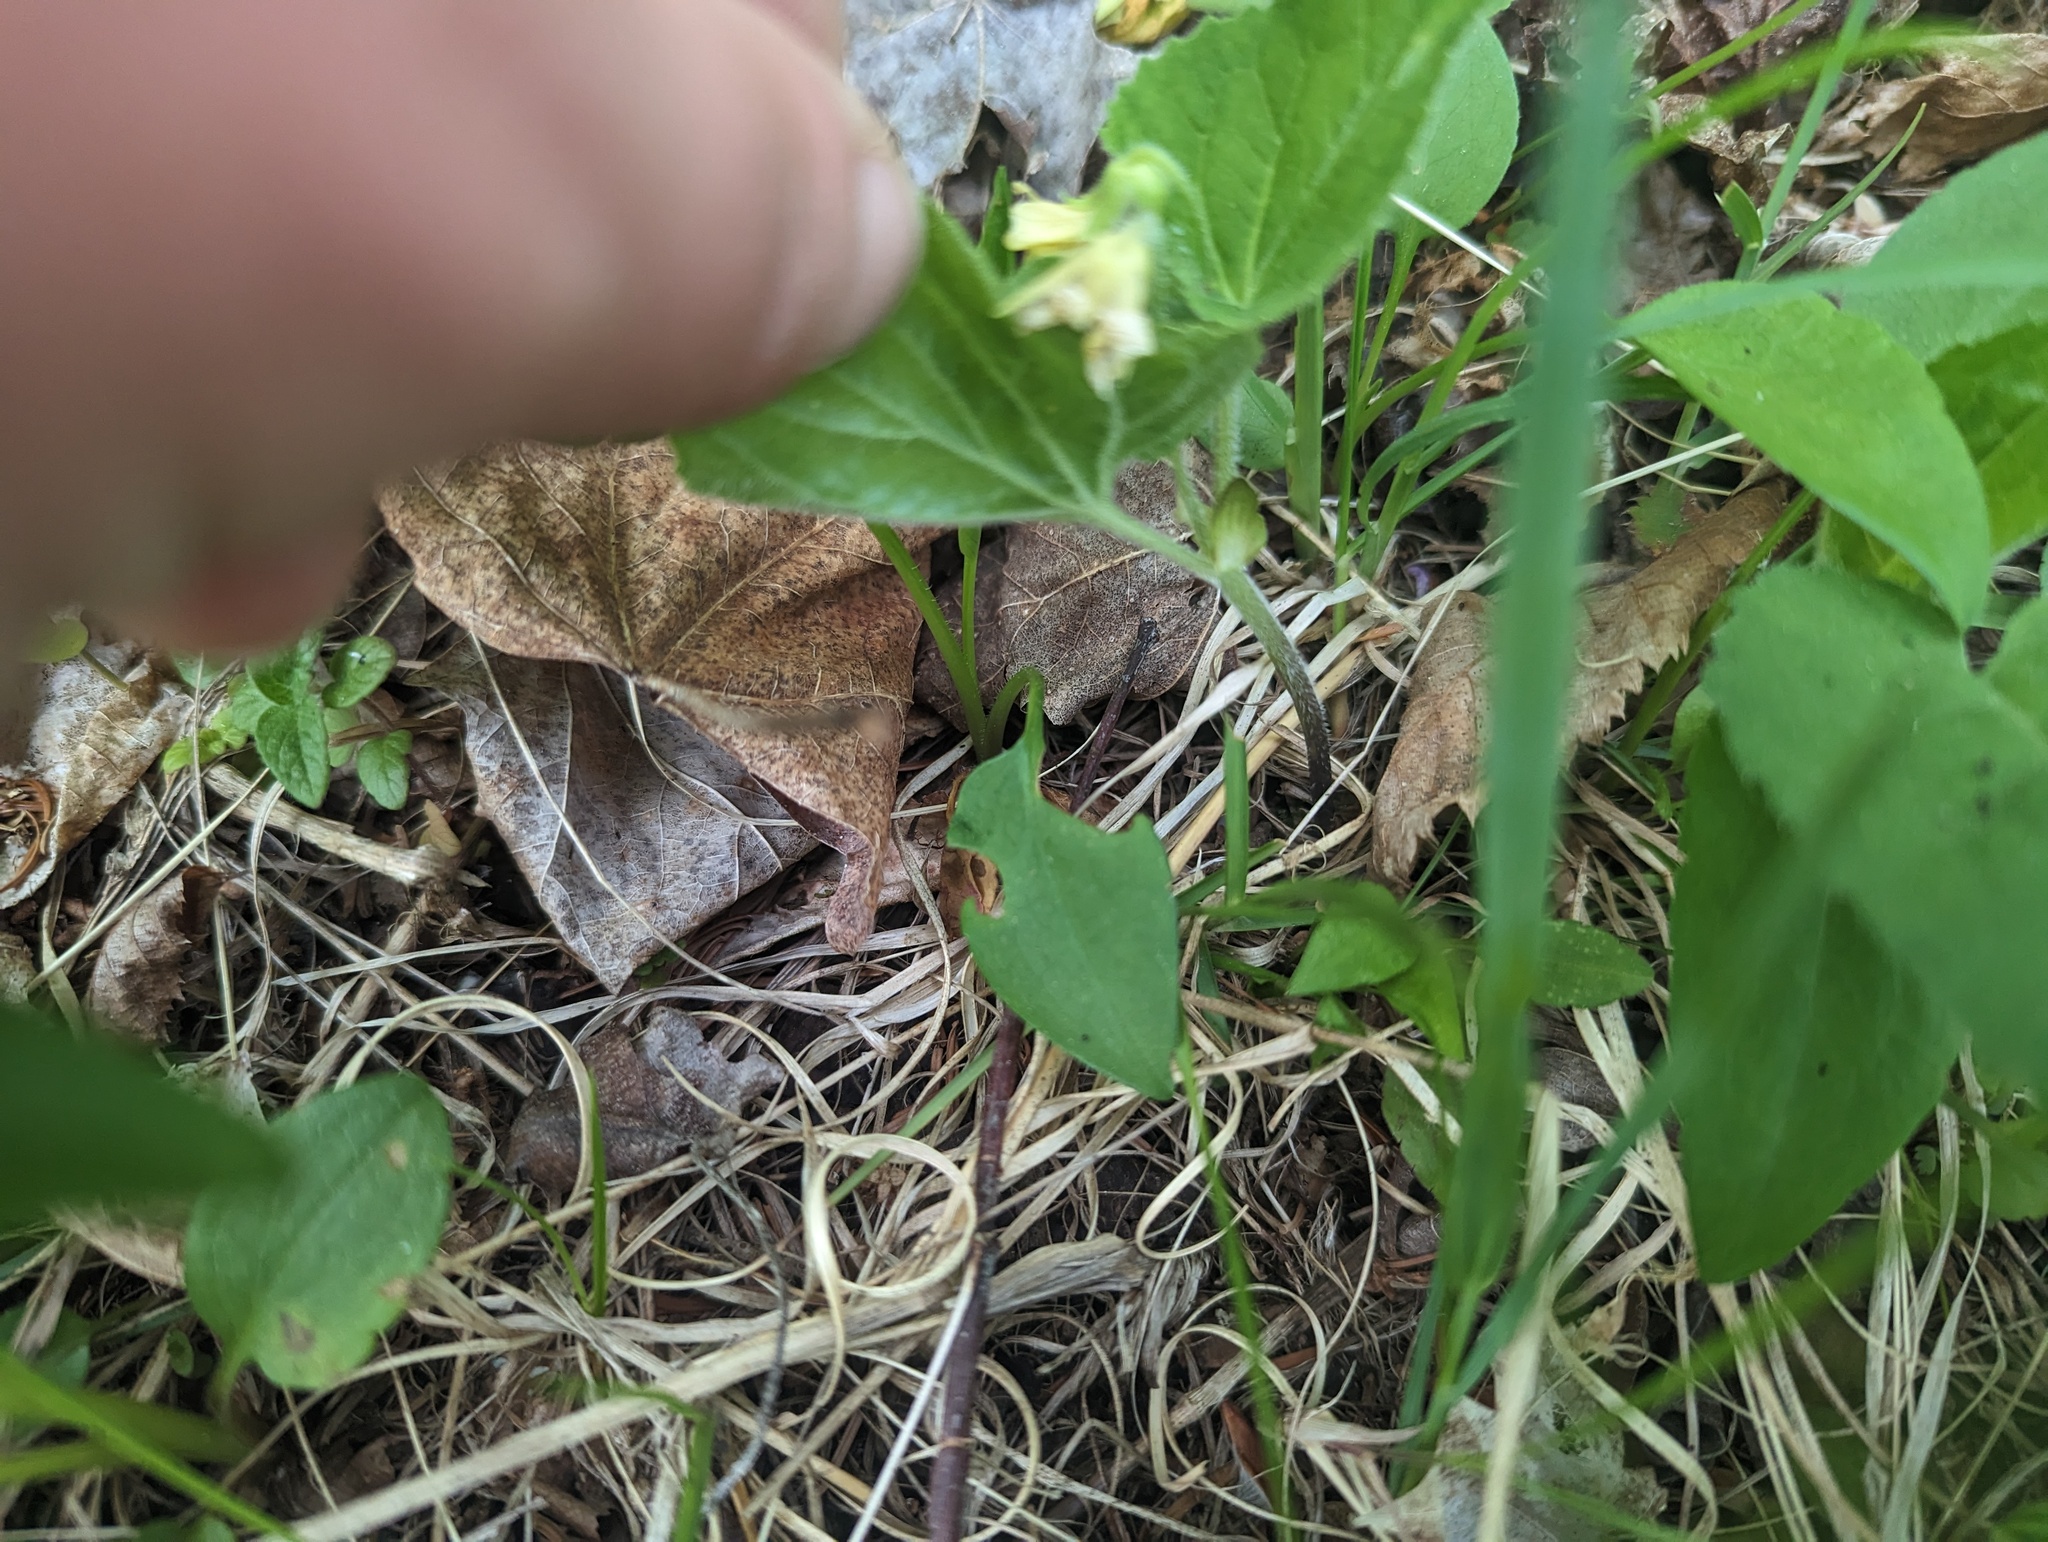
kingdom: Plantae
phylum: Tracheophyta
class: Magnoliopsida
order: Malpighiales
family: Violaceae
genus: Viola
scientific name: Viola pubescens
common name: Yellow forest violet
